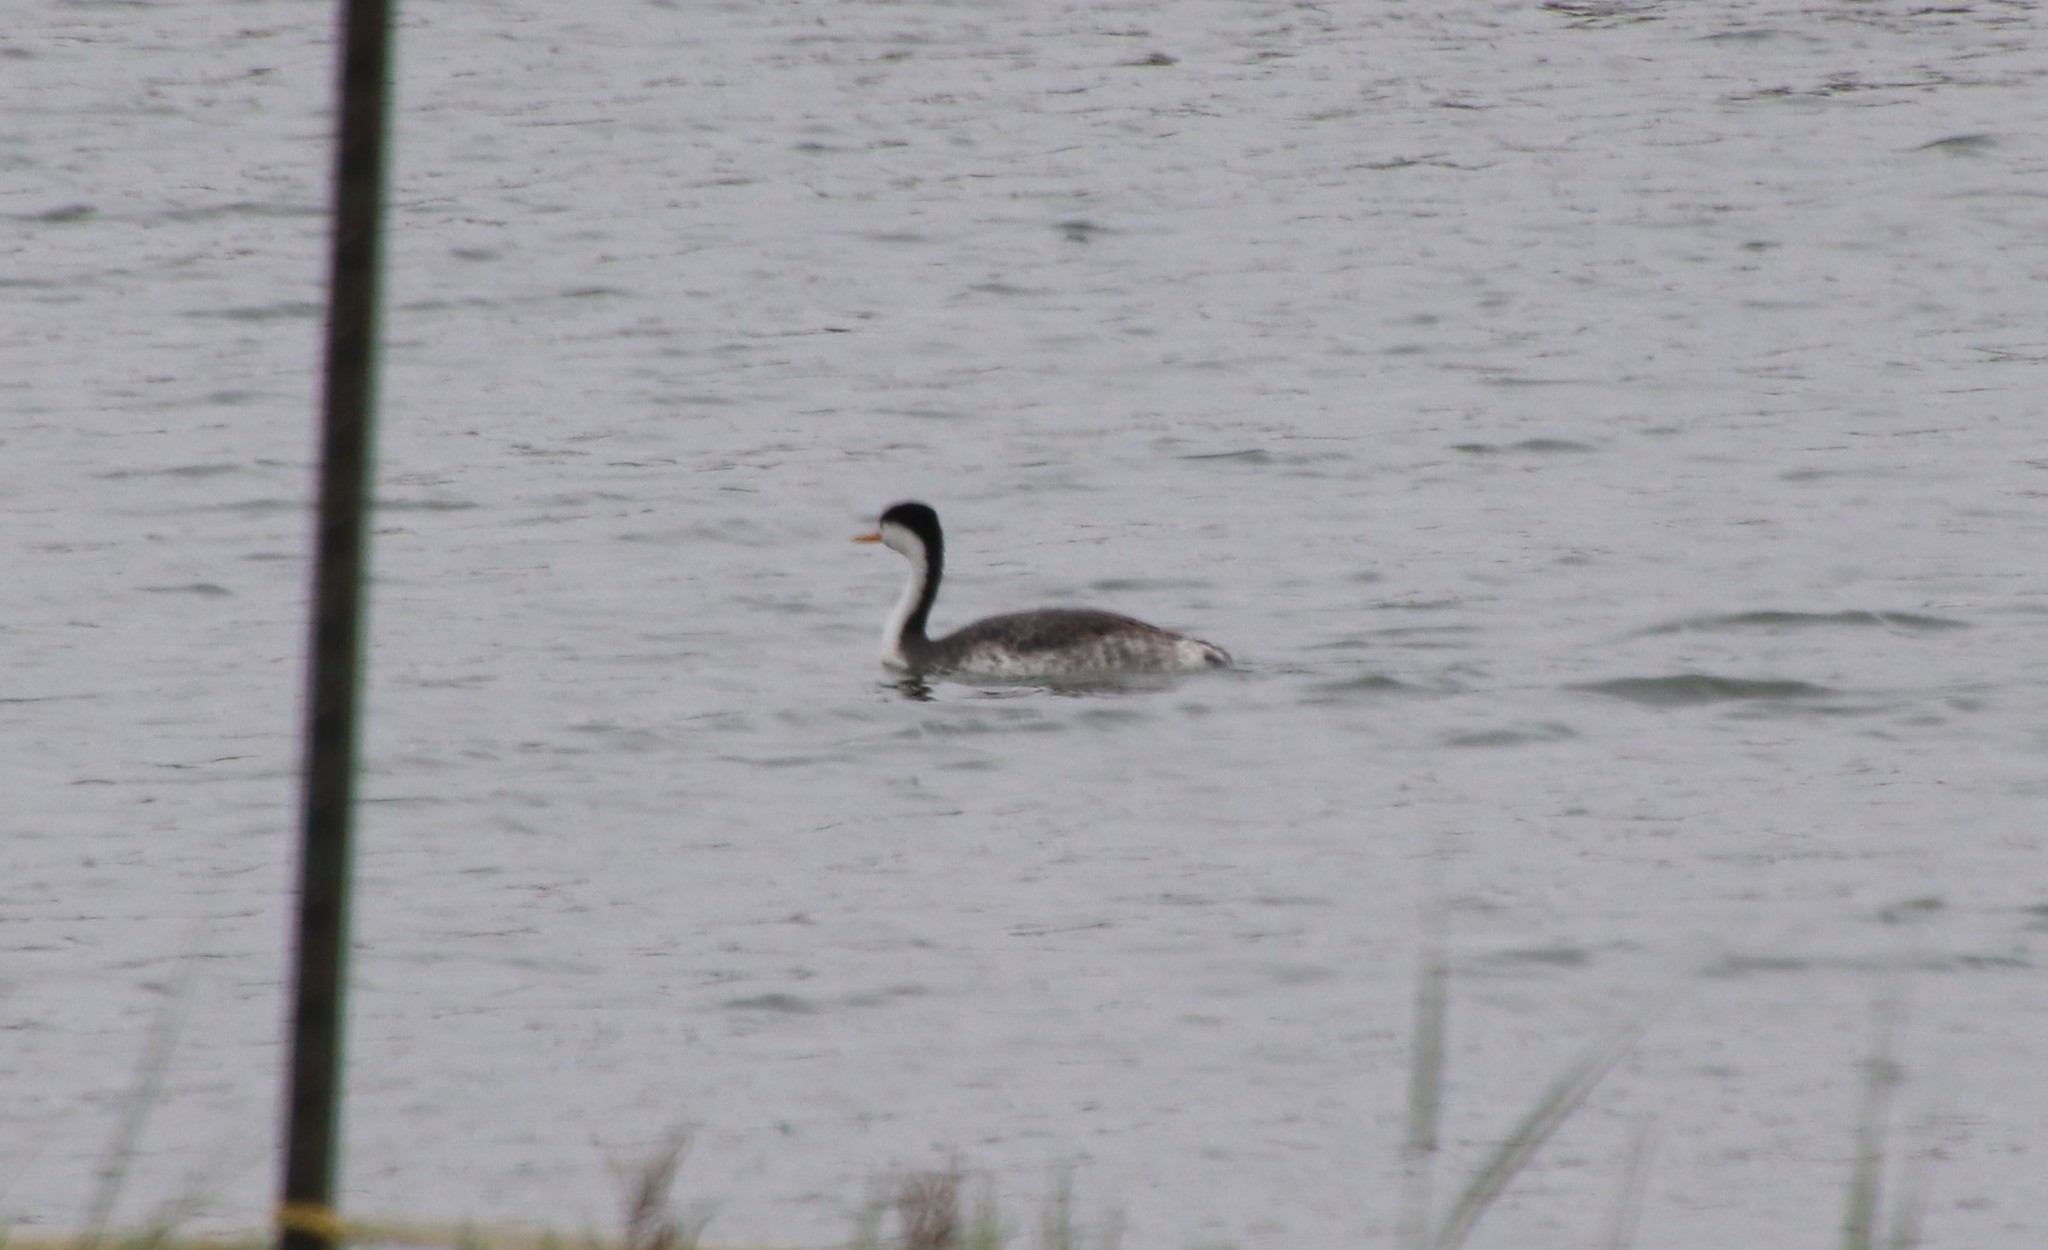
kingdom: Animalia
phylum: Chordata
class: Aves
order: Podicipediformes
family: Podicipedidae
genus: Aechmophorus
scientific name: Aechmophorus clarkii
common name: Clark's grebe
